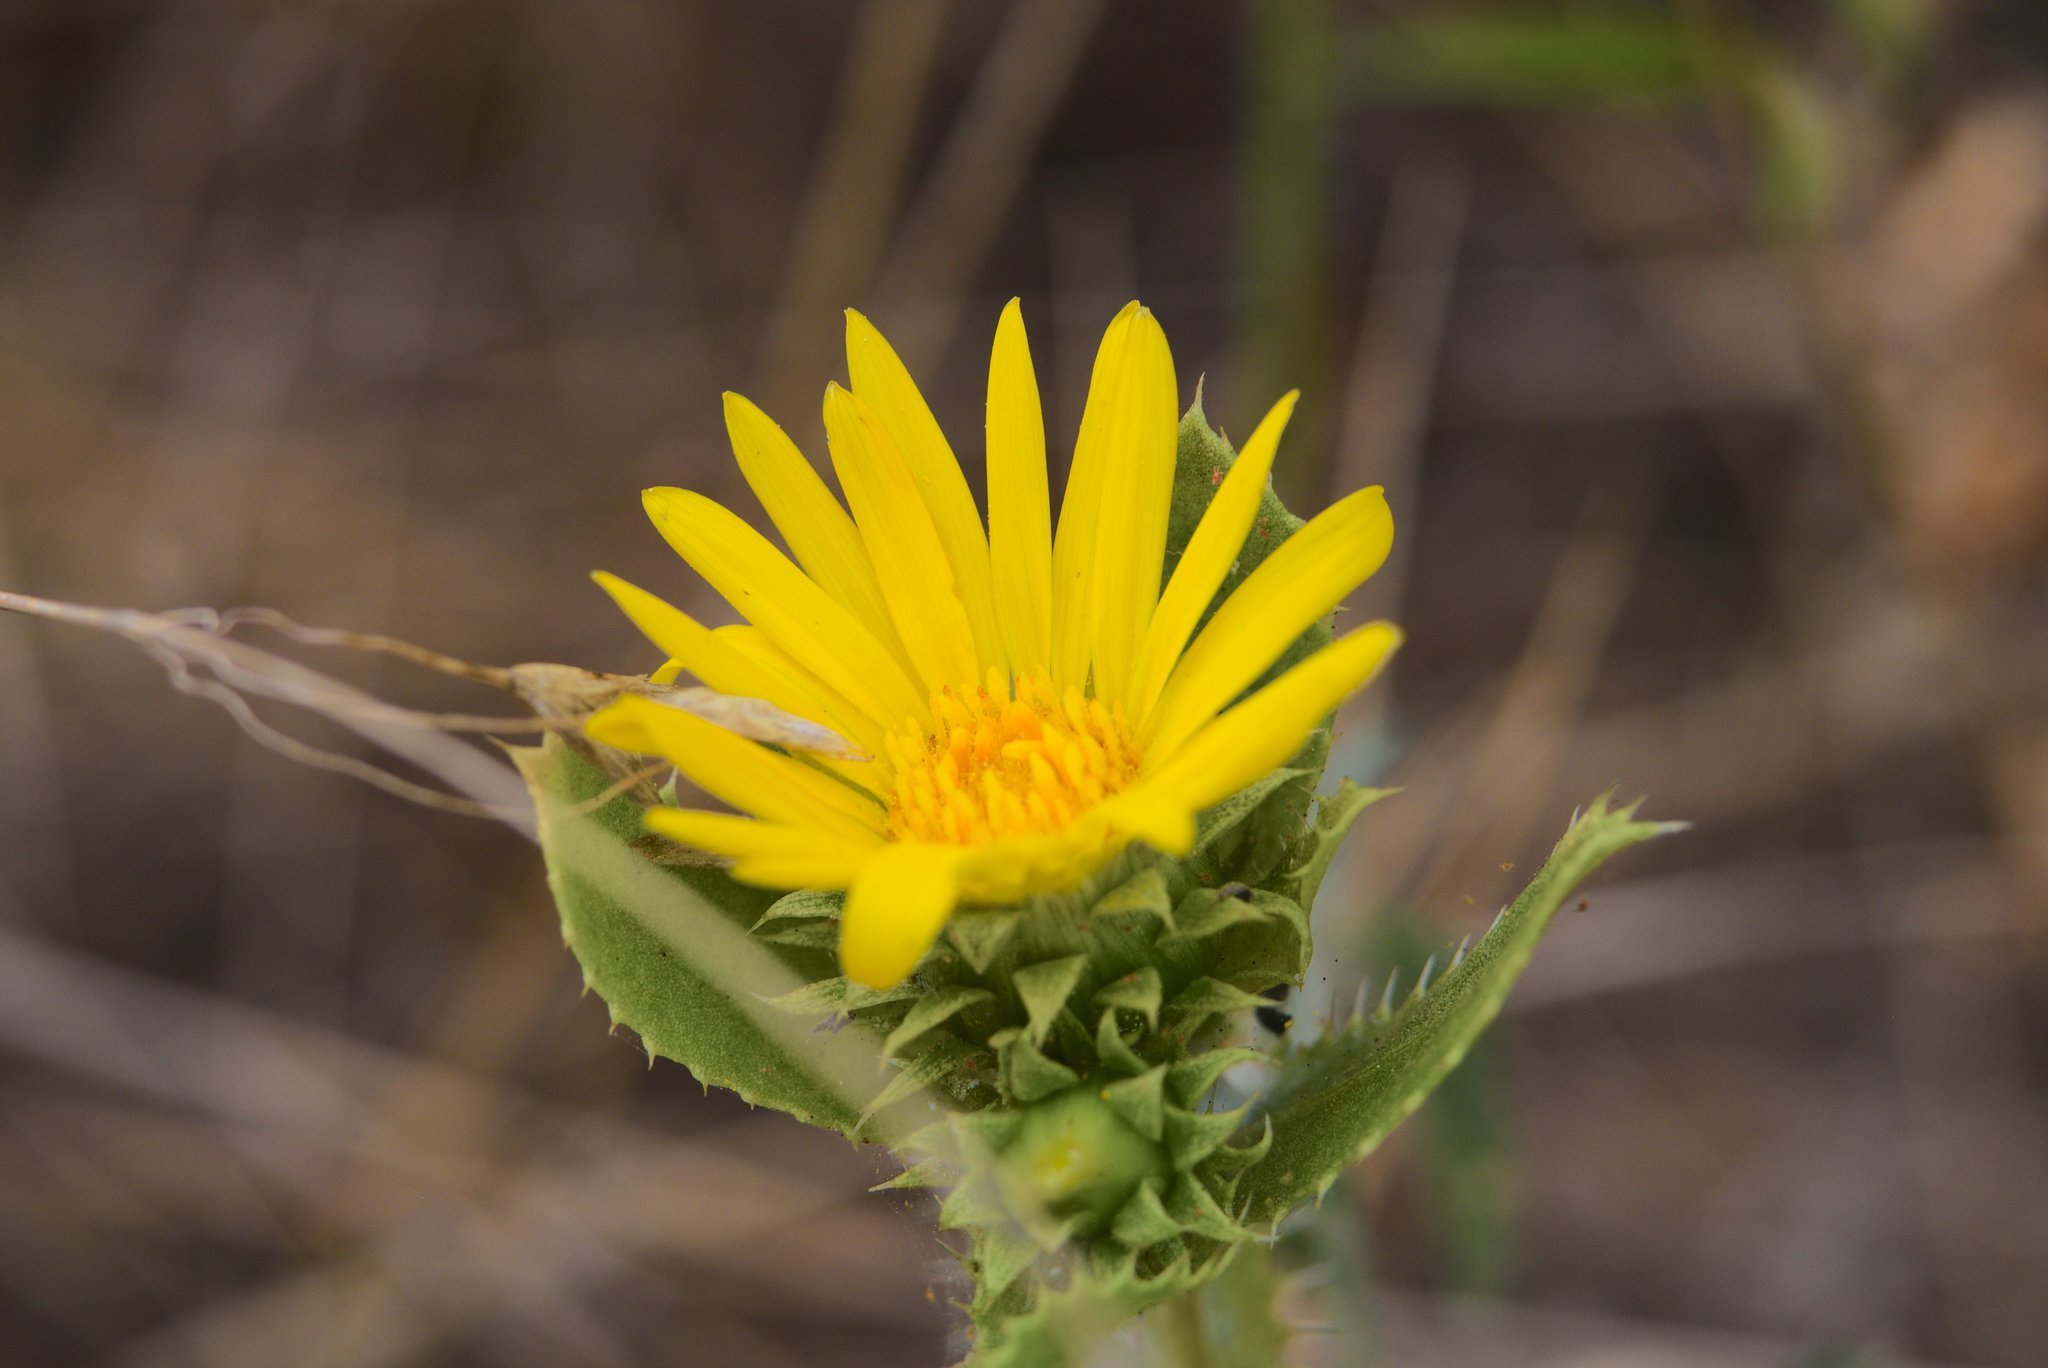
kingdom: Plantae
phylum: Tracheophyta
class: Magnoliopsida
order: Asterales
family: Asteraceae
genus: Grindelia
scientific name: Grindelia ciliata
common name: Goldenweed
